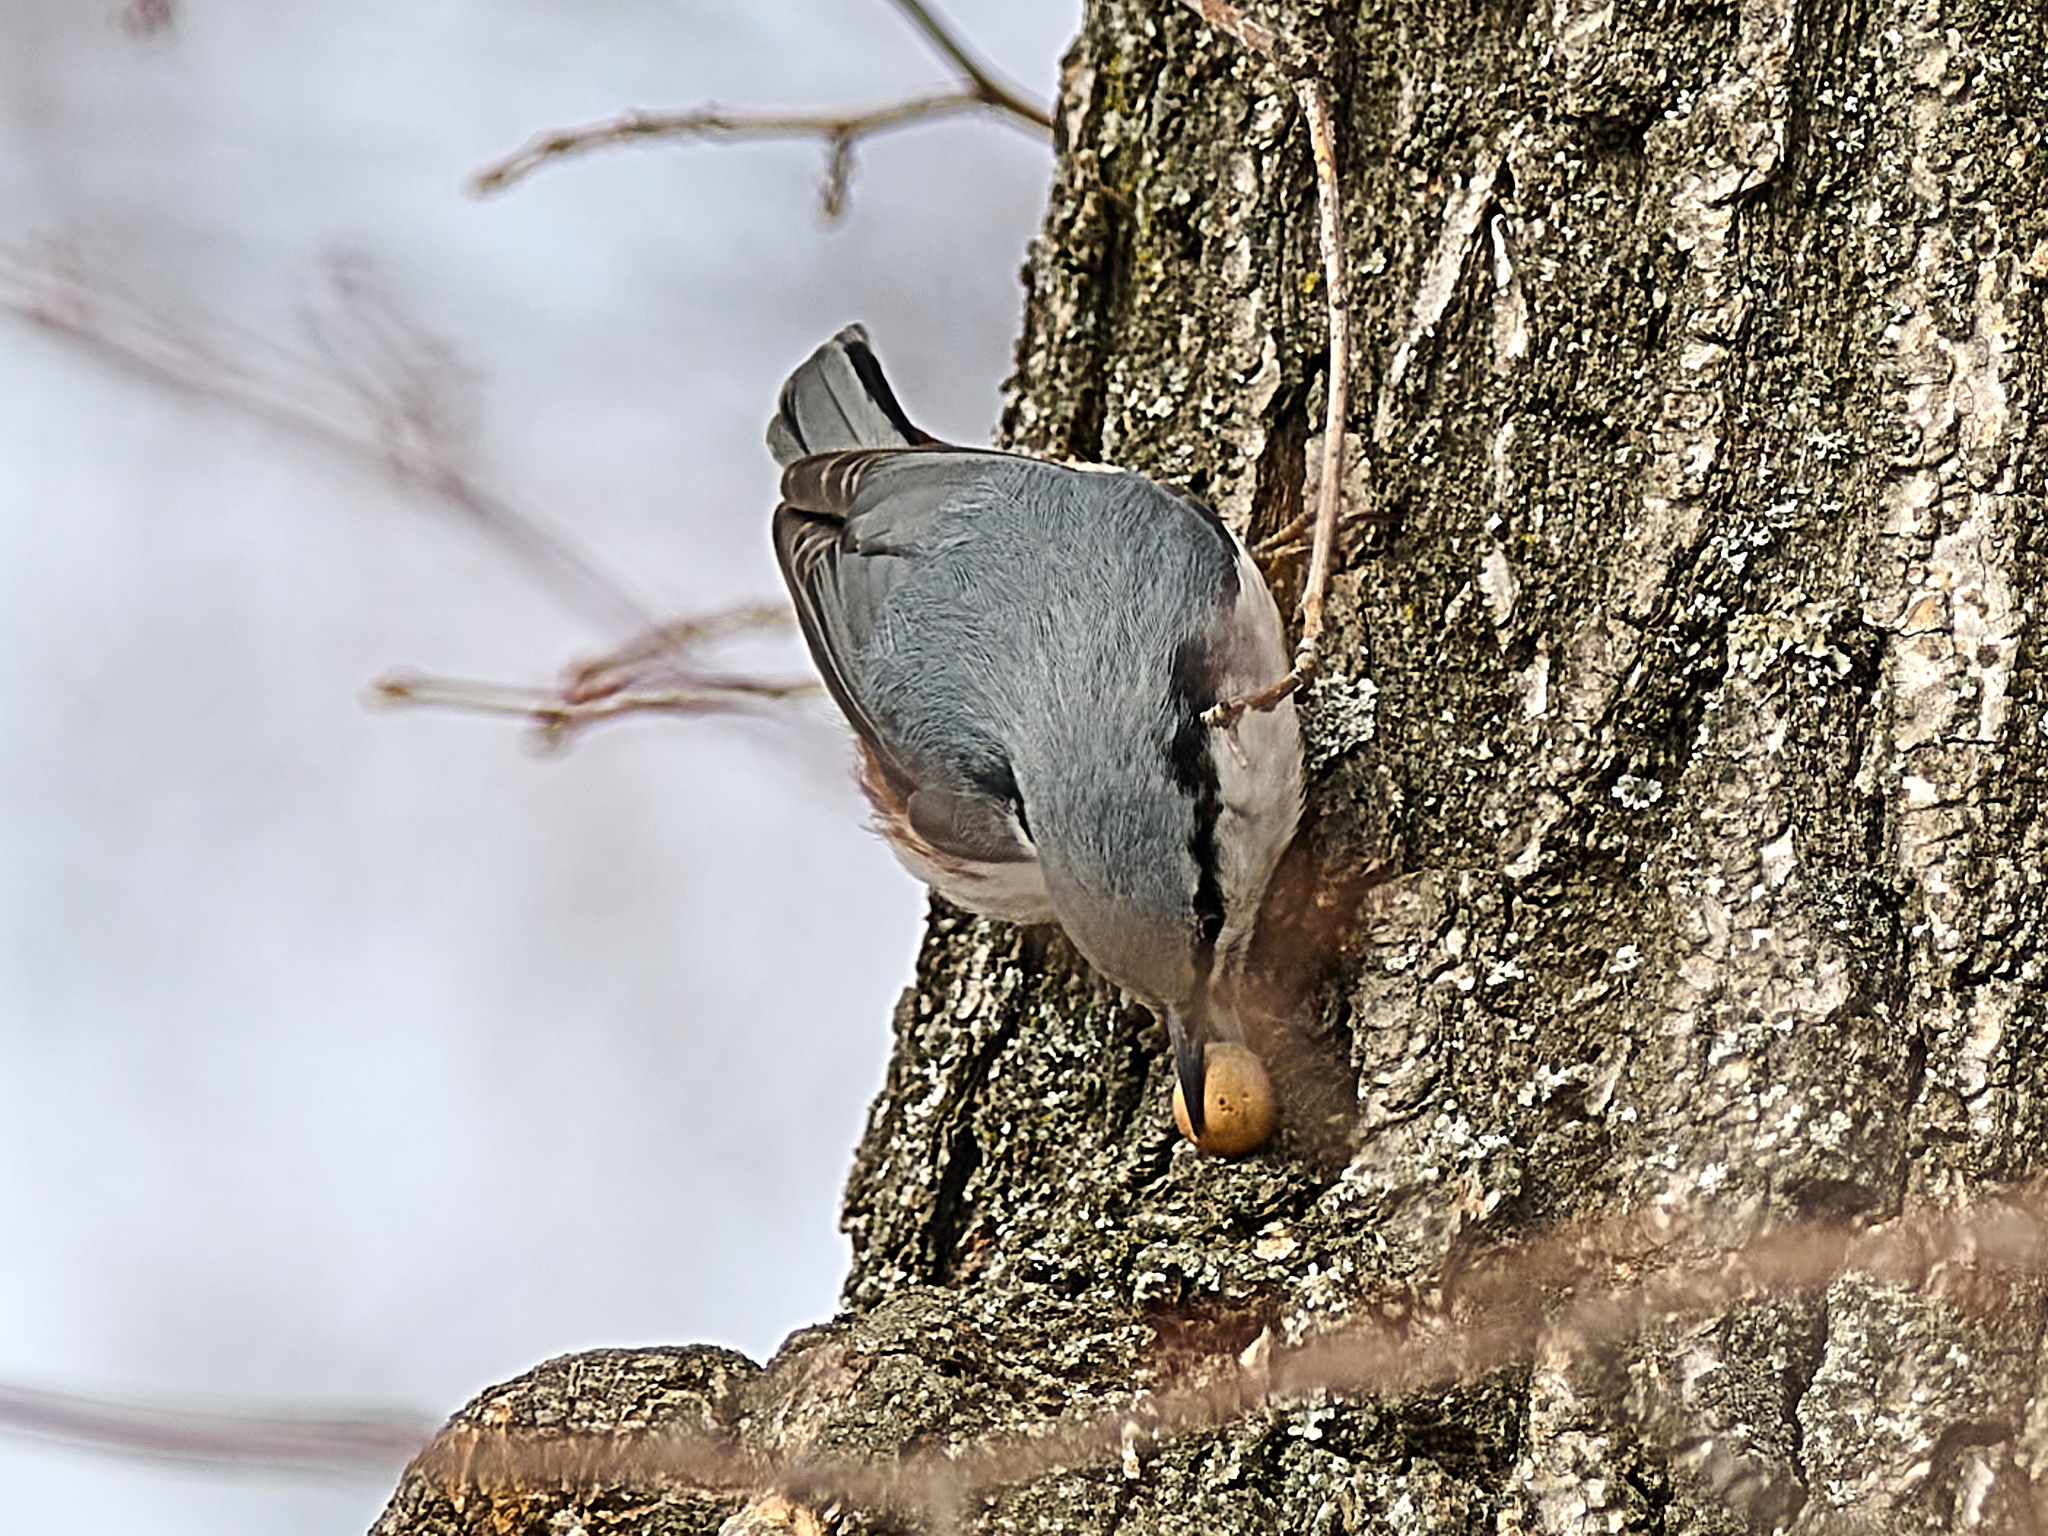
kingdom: Animalia
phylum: Chordata
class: Aves
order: Passeriformes
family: Sittidae
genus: Sitta
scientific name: Sitta europaea
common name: Eurasian nuthatch
